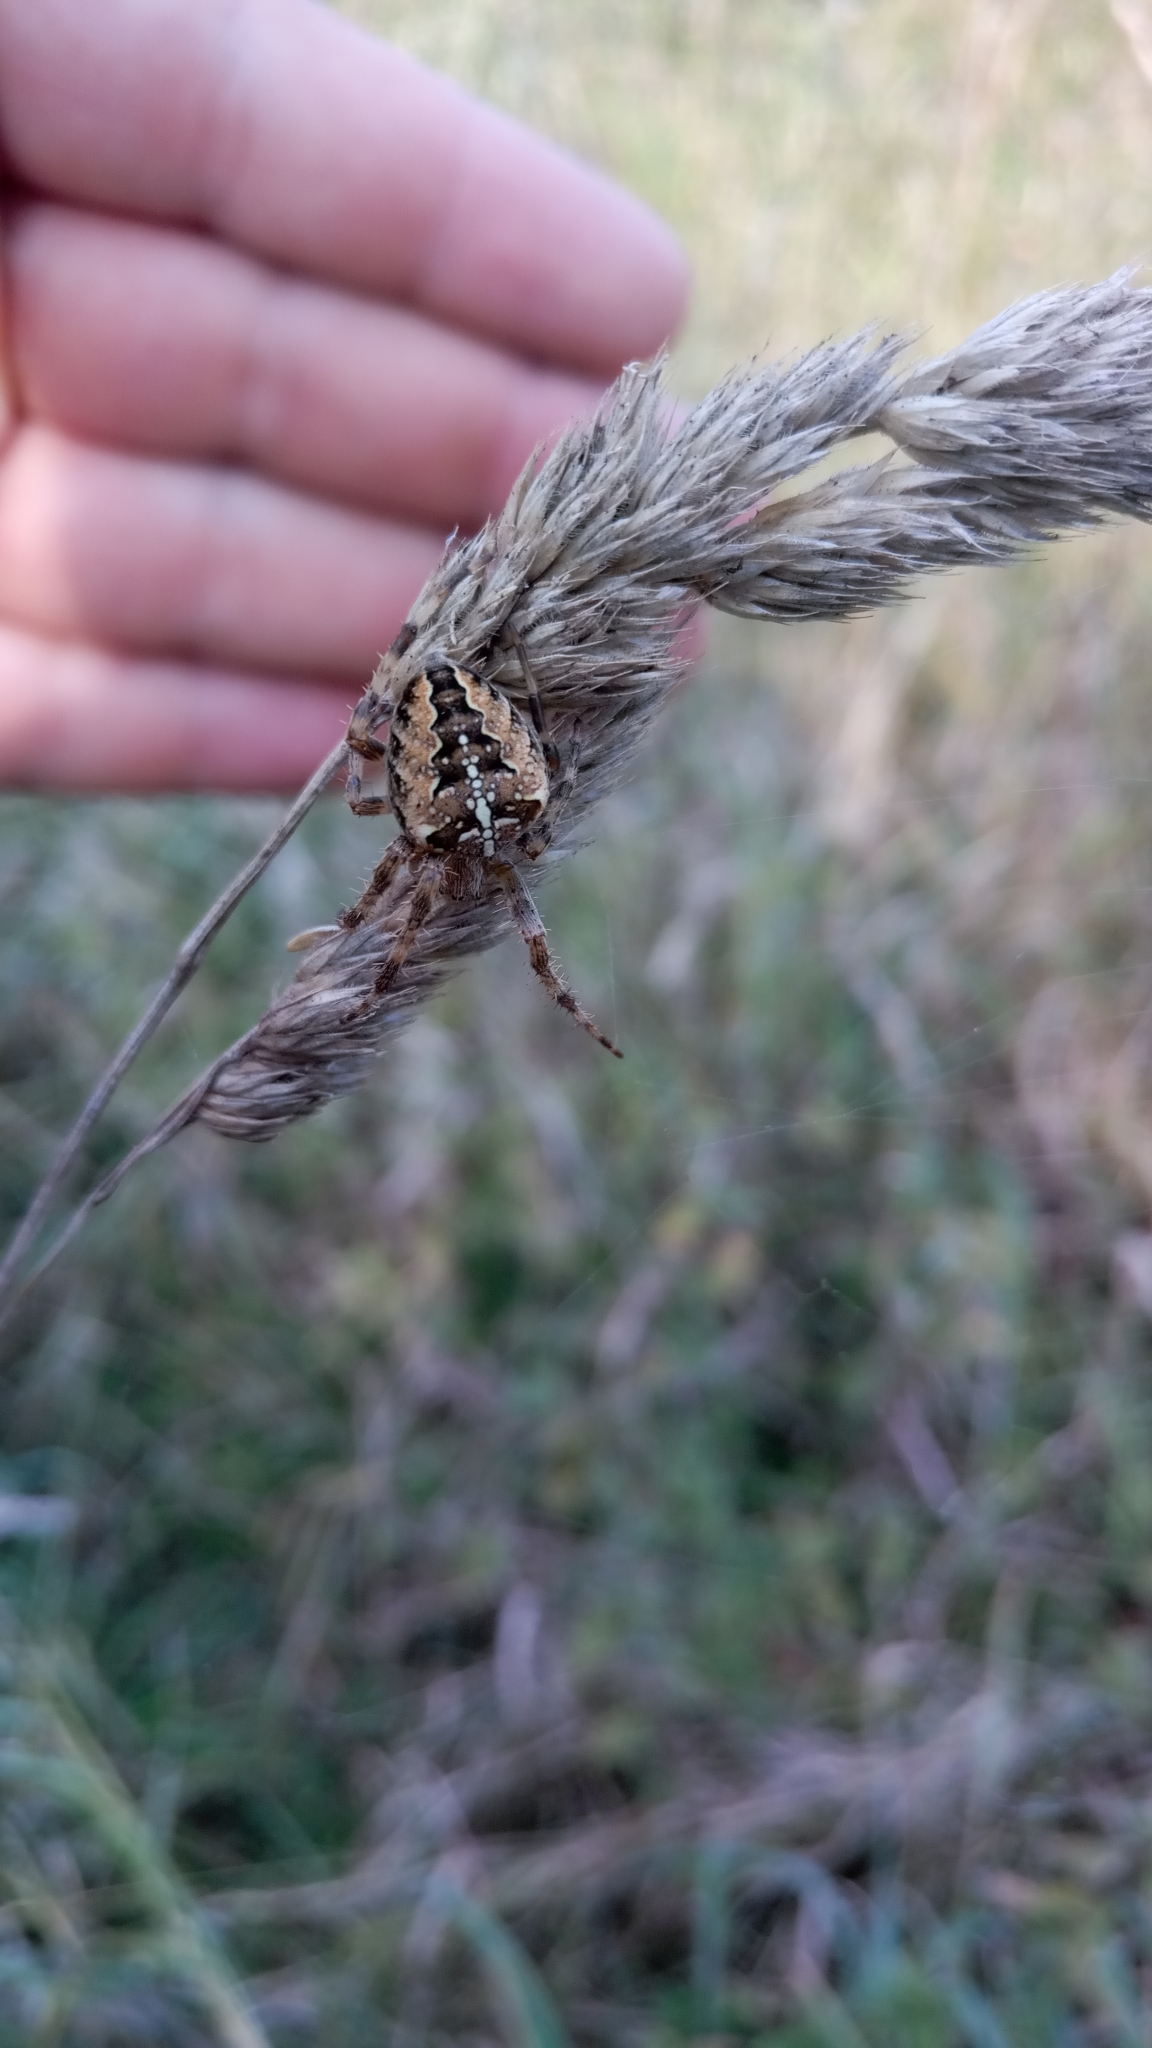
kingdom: Animalia
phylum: Arthropoda
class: Arachnida
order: Araneae
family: Araneidae
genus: Araneus
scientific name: Araneus diadematus
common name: Cross orbweaver
